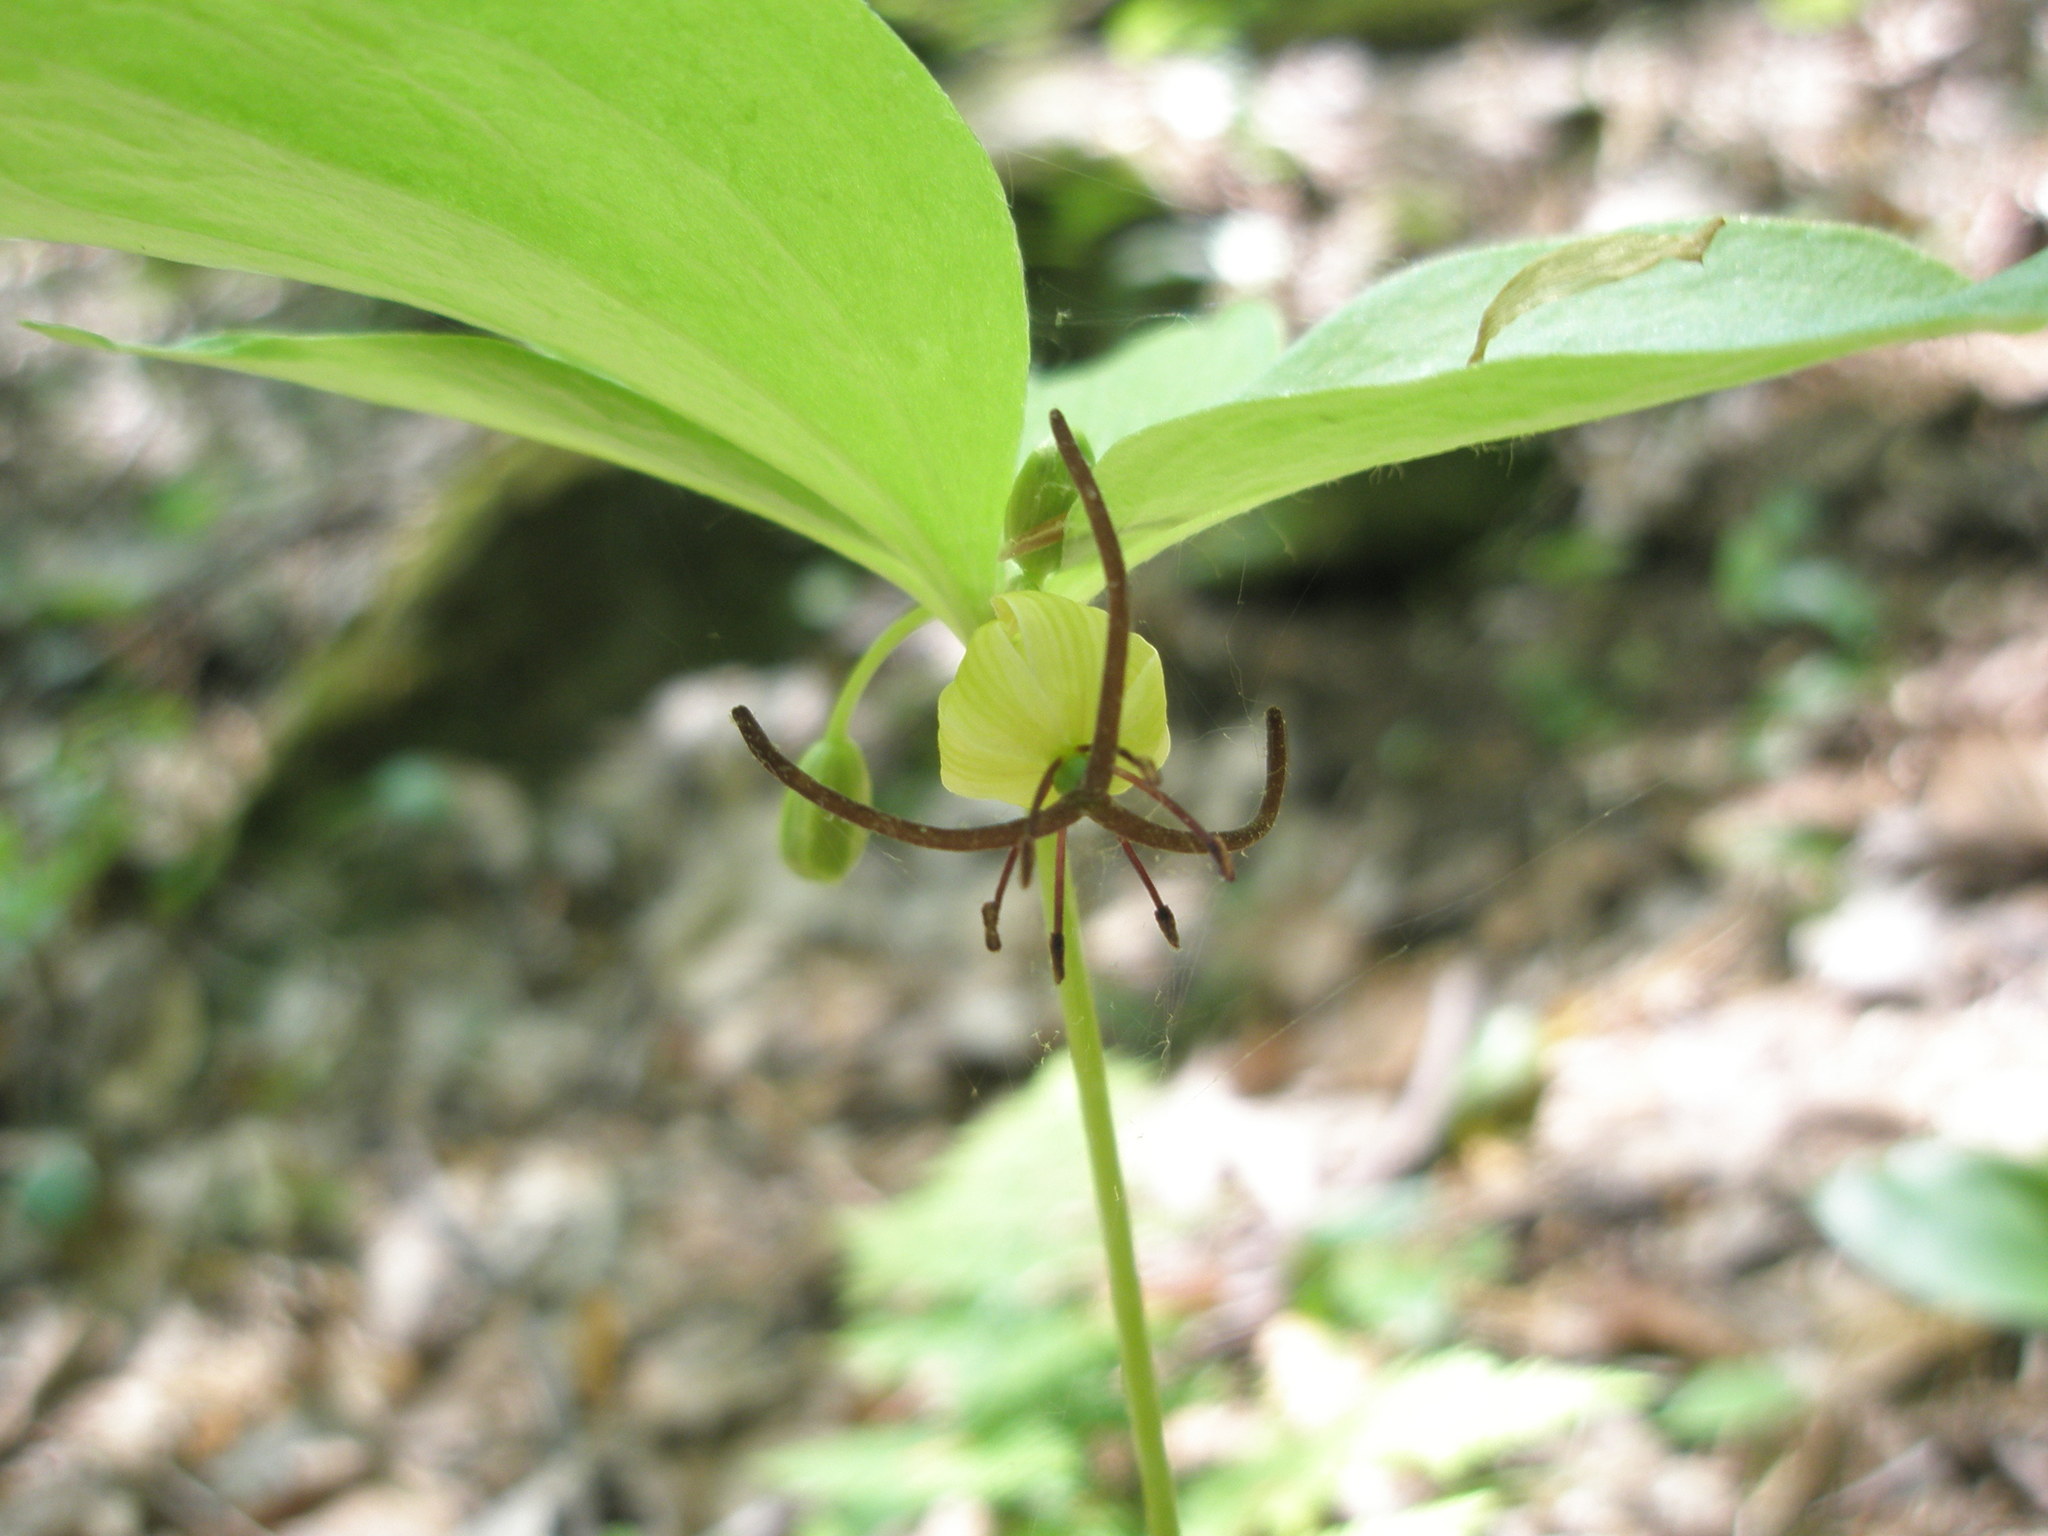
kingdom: Plantae
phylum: Tracheophyta
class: Liliopsida
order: Liliales
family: Liliaceae
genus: Medeola
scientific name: Medeola virginiana
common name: Indian cucumber-root
